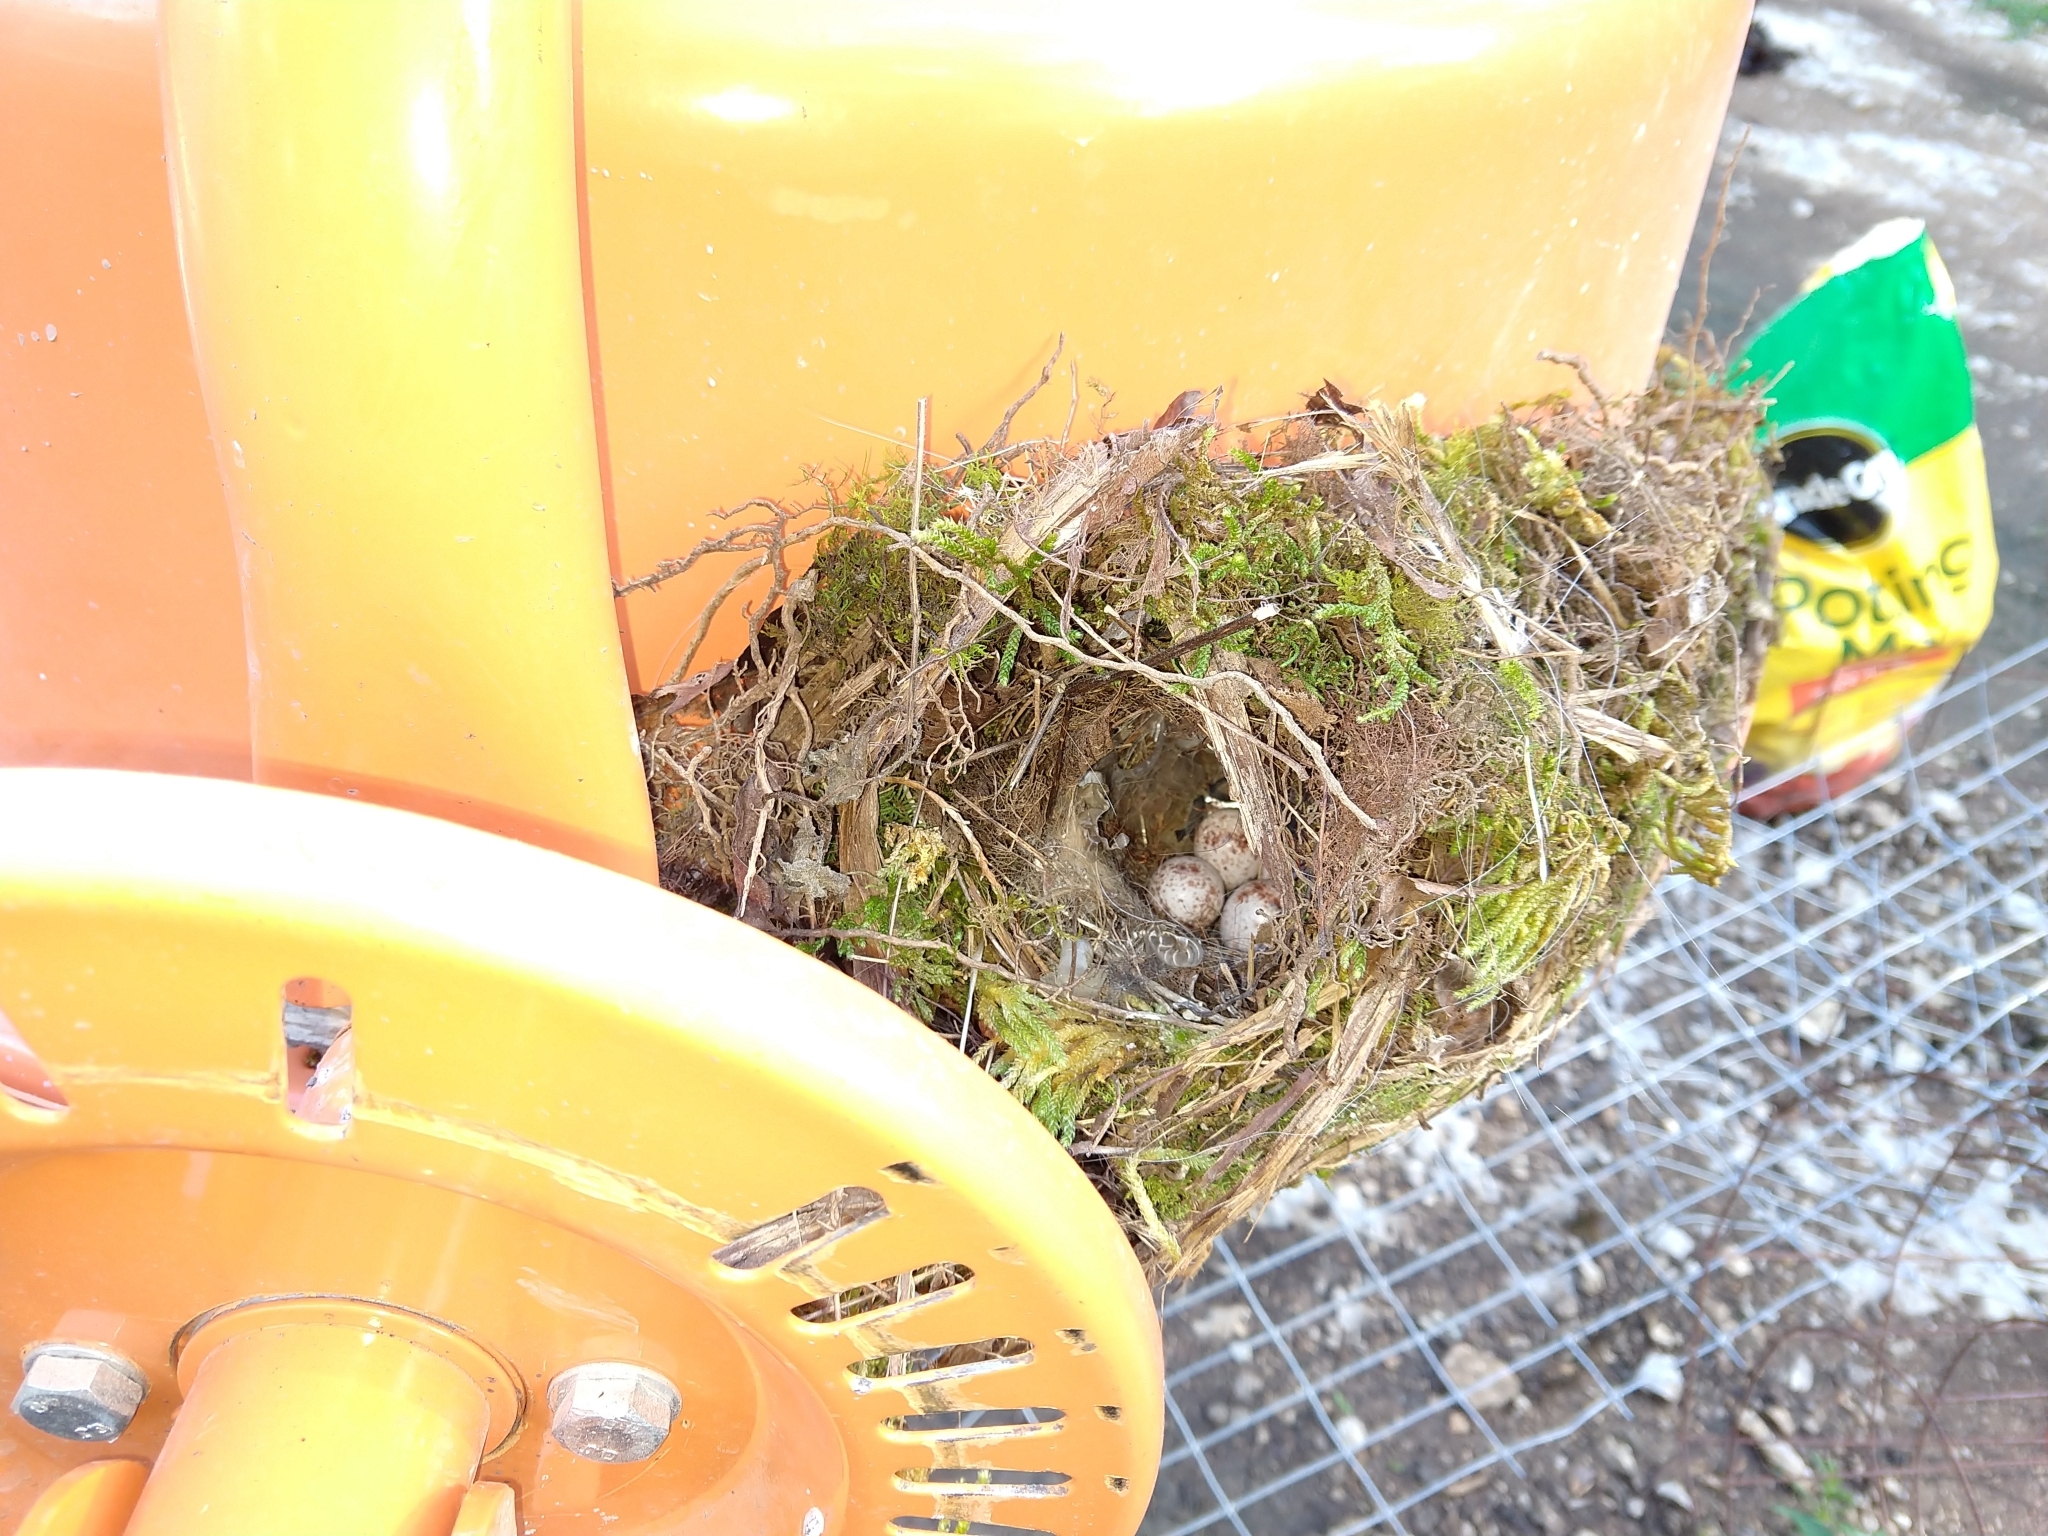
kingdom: Animalia
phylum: Chordata
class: Aves
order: Passeriformes
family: Troglodytidae
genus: Thryothorus
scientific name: Thryothorus ludovicianus
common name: Carolina wren
